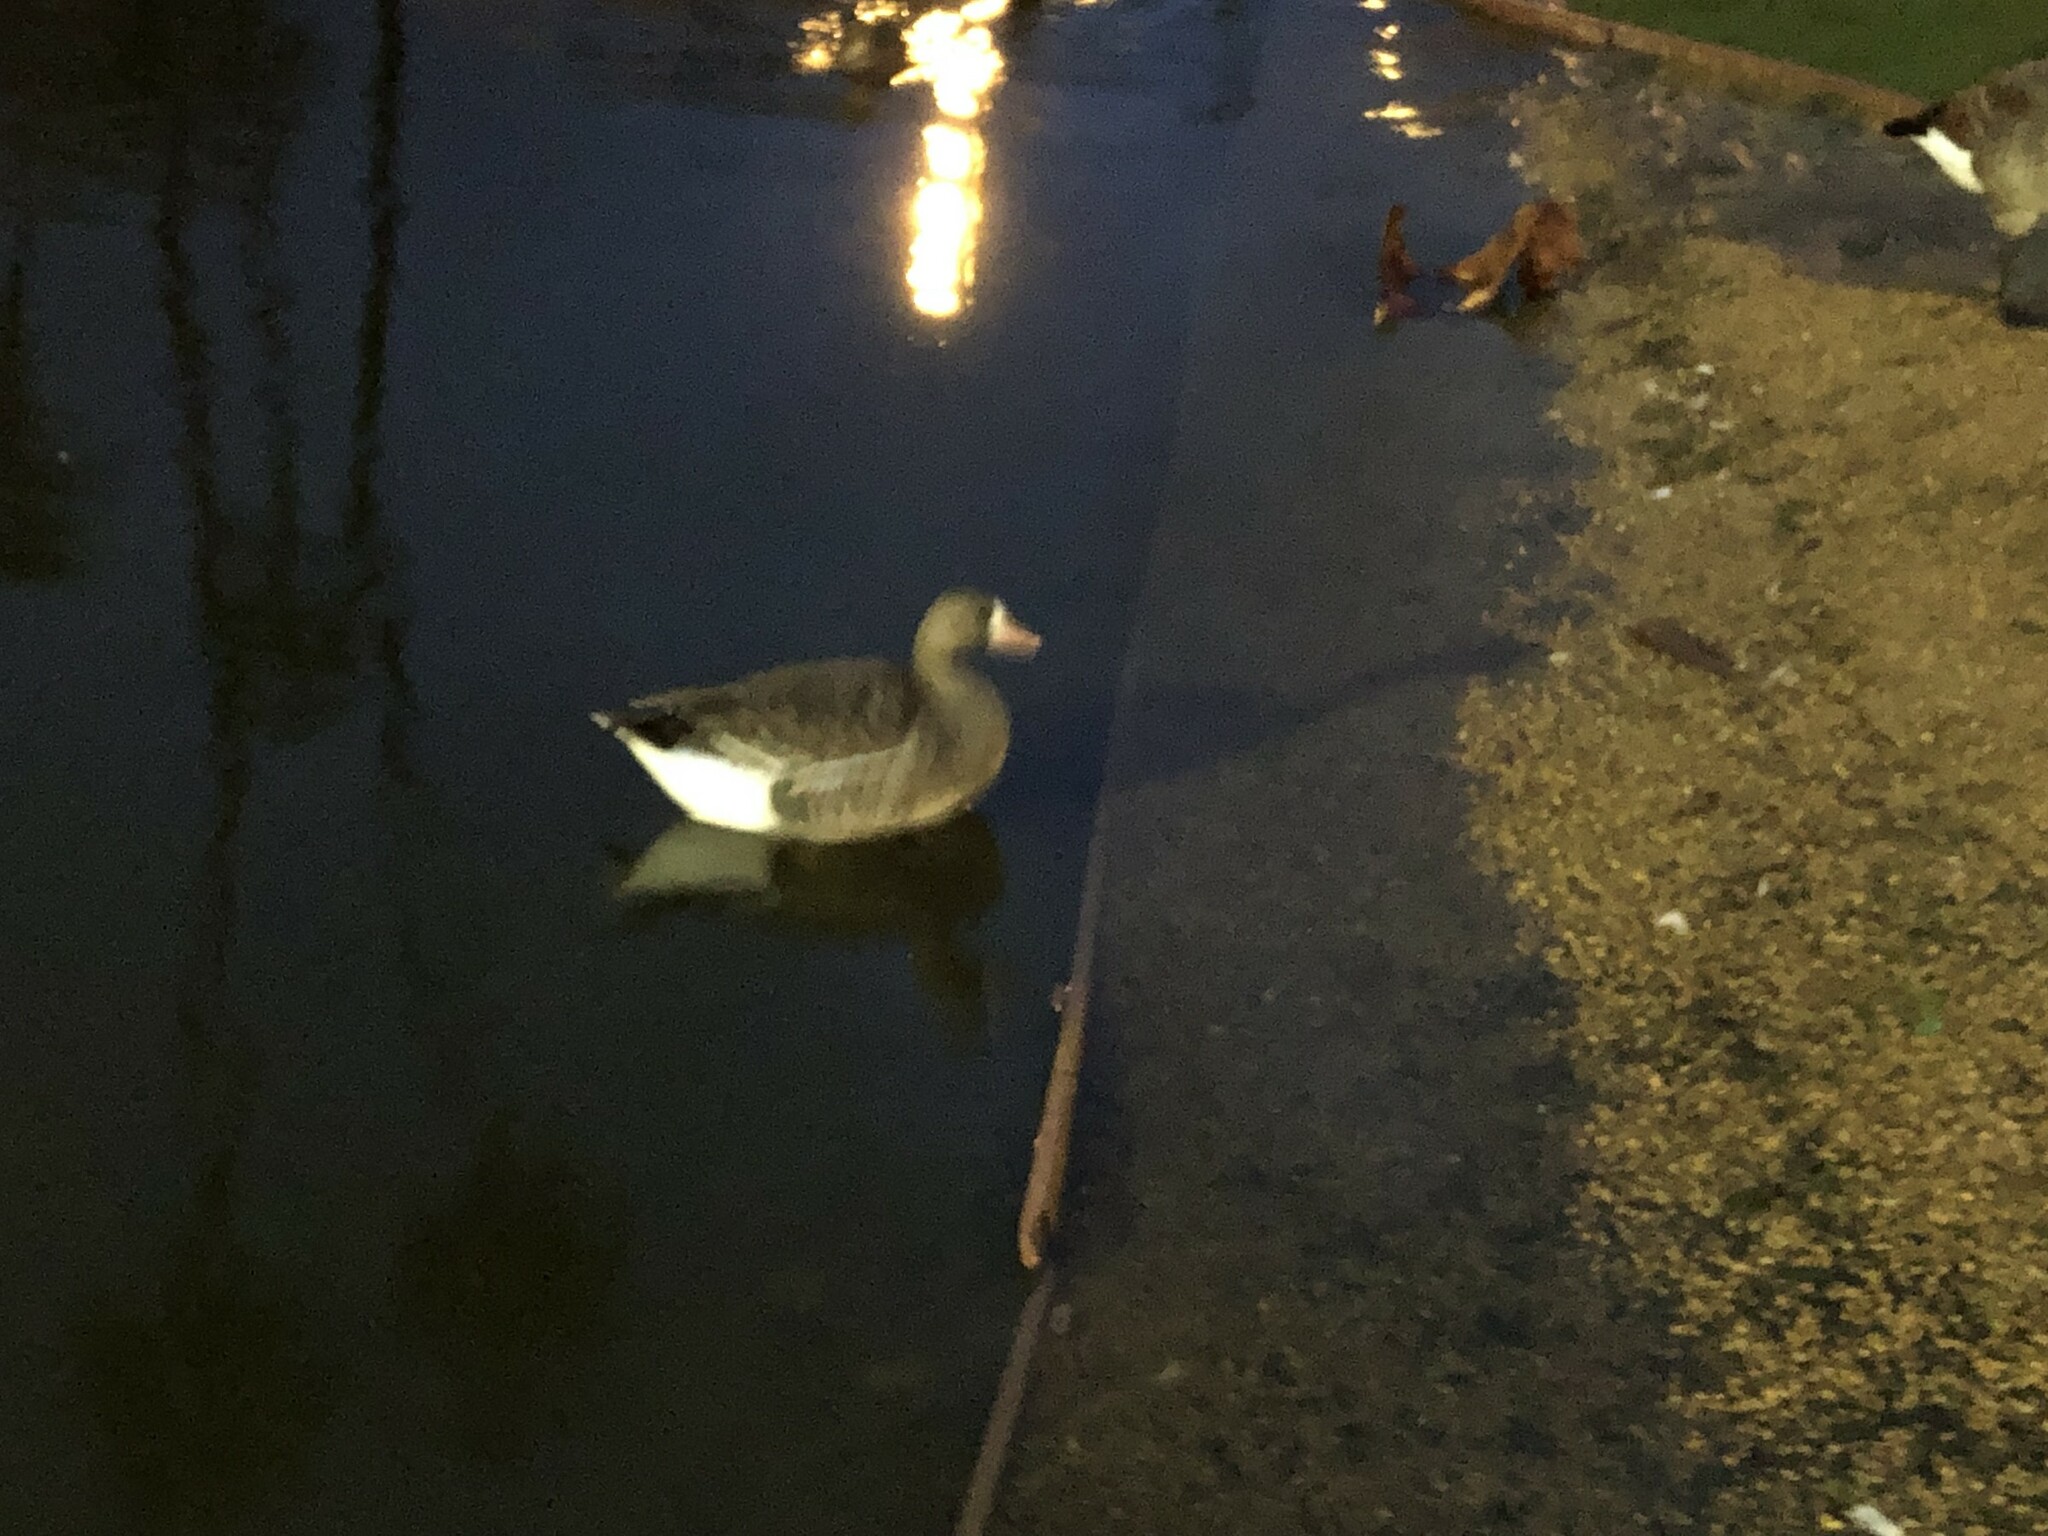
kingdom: Animalia
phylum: Chordata
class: Aves
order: Anseriformes
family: Anatidae
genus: Anser
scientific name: Anser albifrons
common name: Greater white-fronted goose
